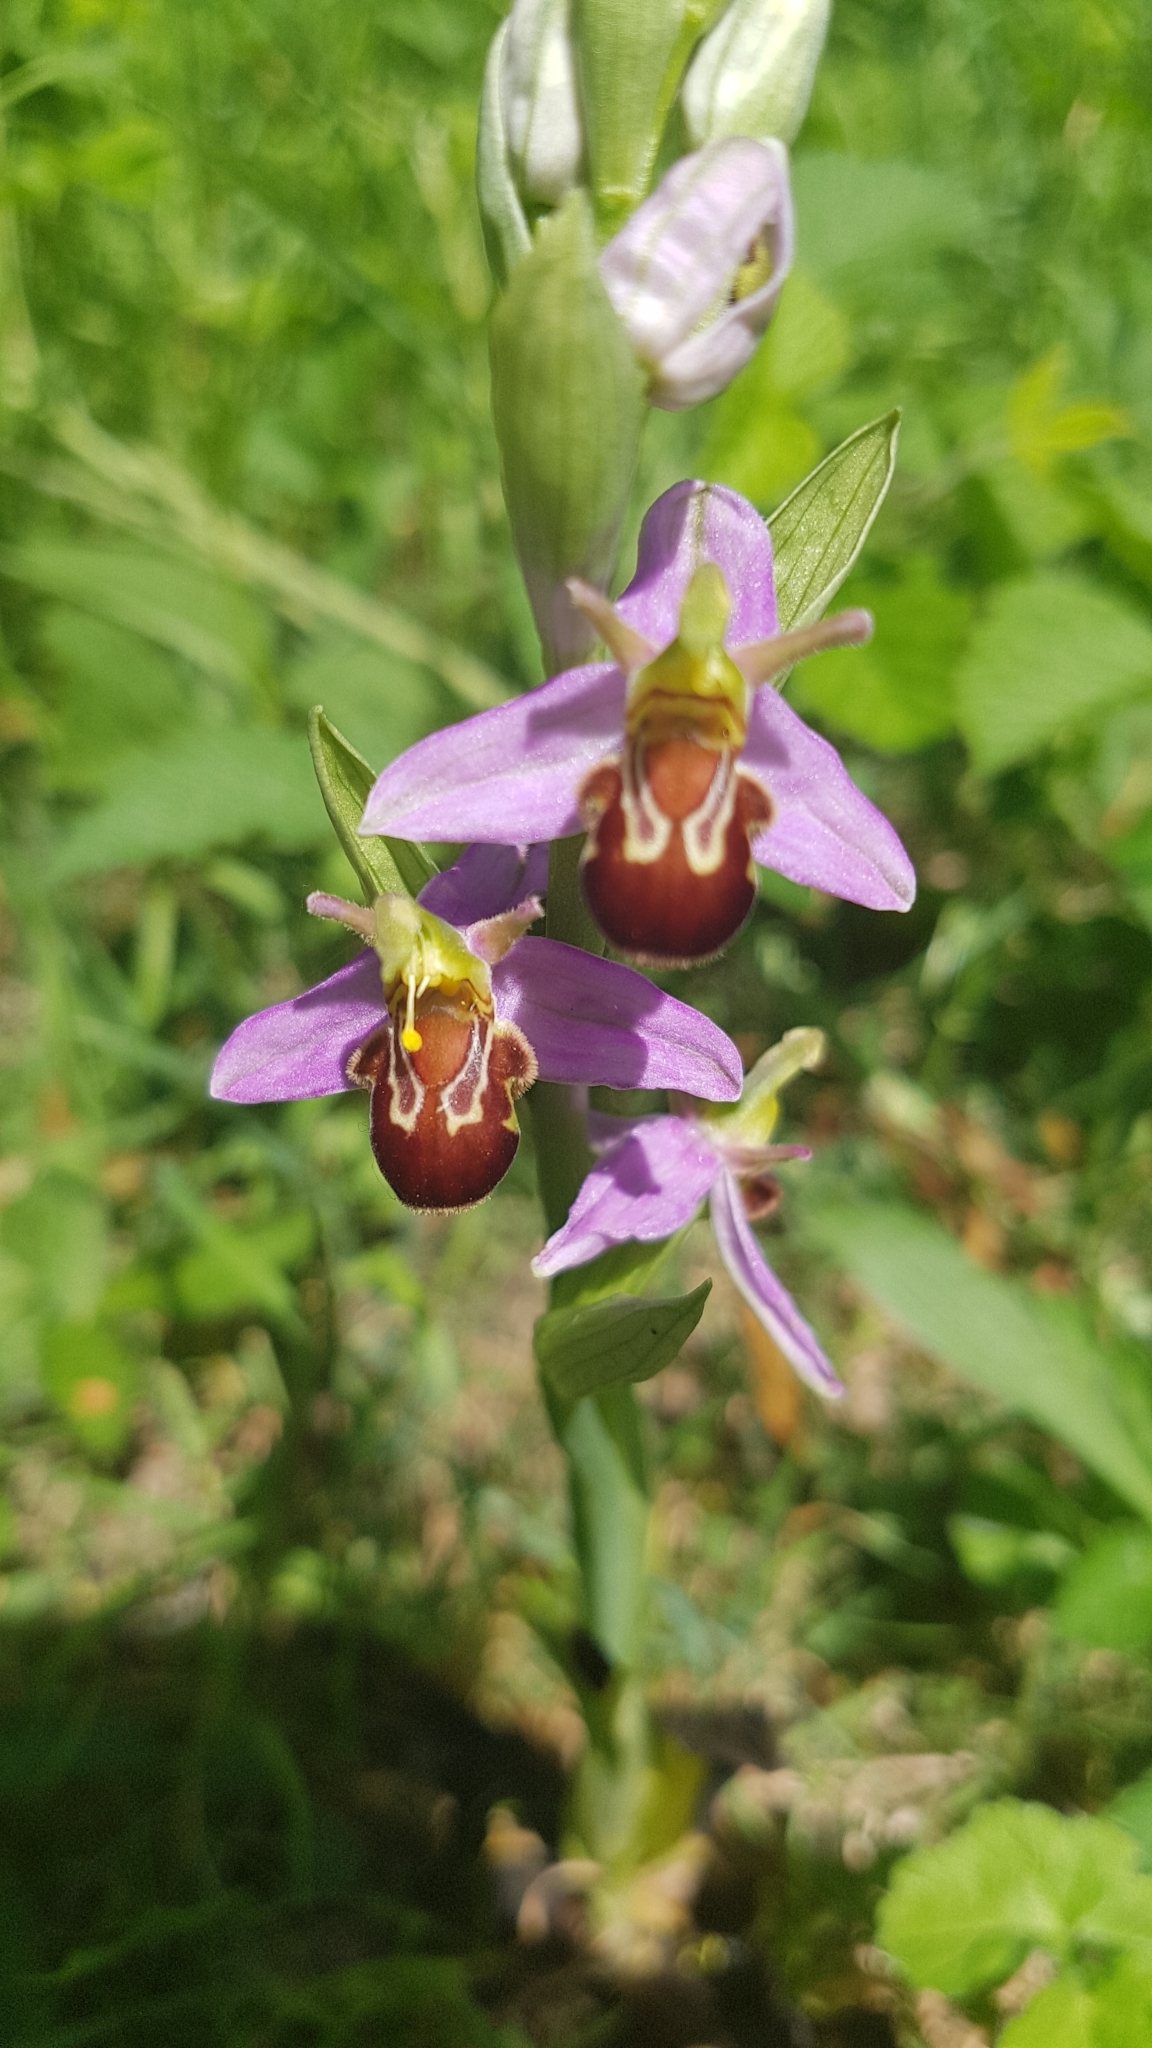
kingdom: Plantae
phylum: Tracheophyta
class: Liliopsida
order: Asparagales
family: Orchidaceae
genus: Ophrys
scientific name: Ophrys apifera
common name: Bee orchid
